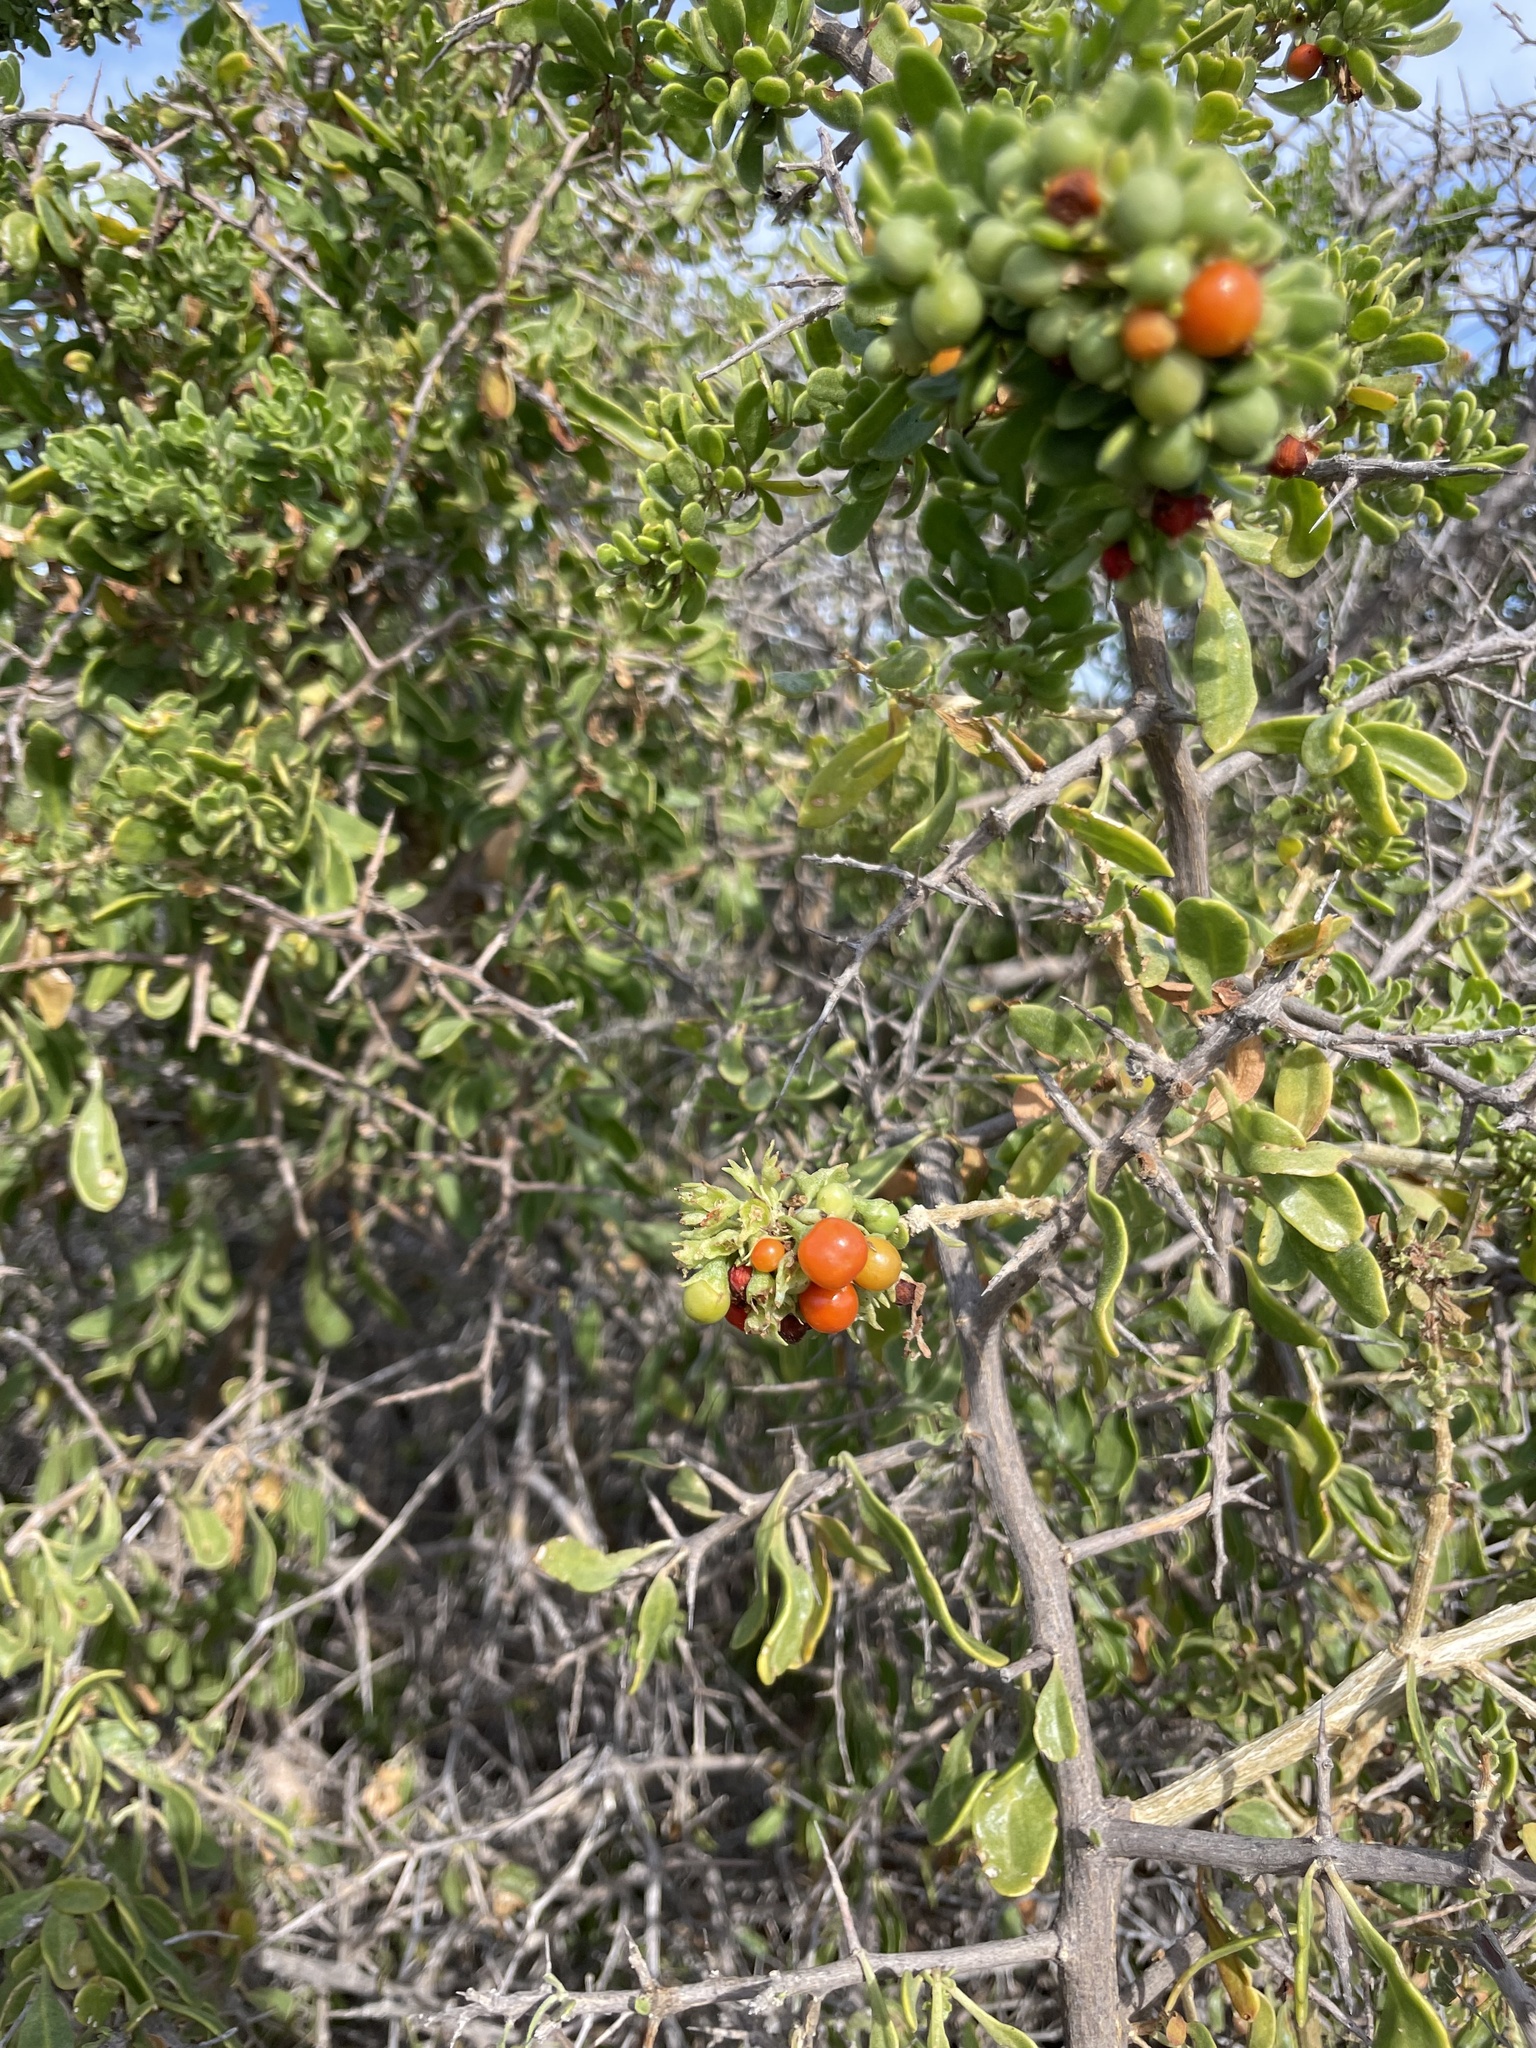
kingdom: Plantae
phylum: Tracheophyta
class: Magnoliopsida
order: Solanales
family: Solanaceae
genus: Lycium
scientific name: Lycium brevipes
